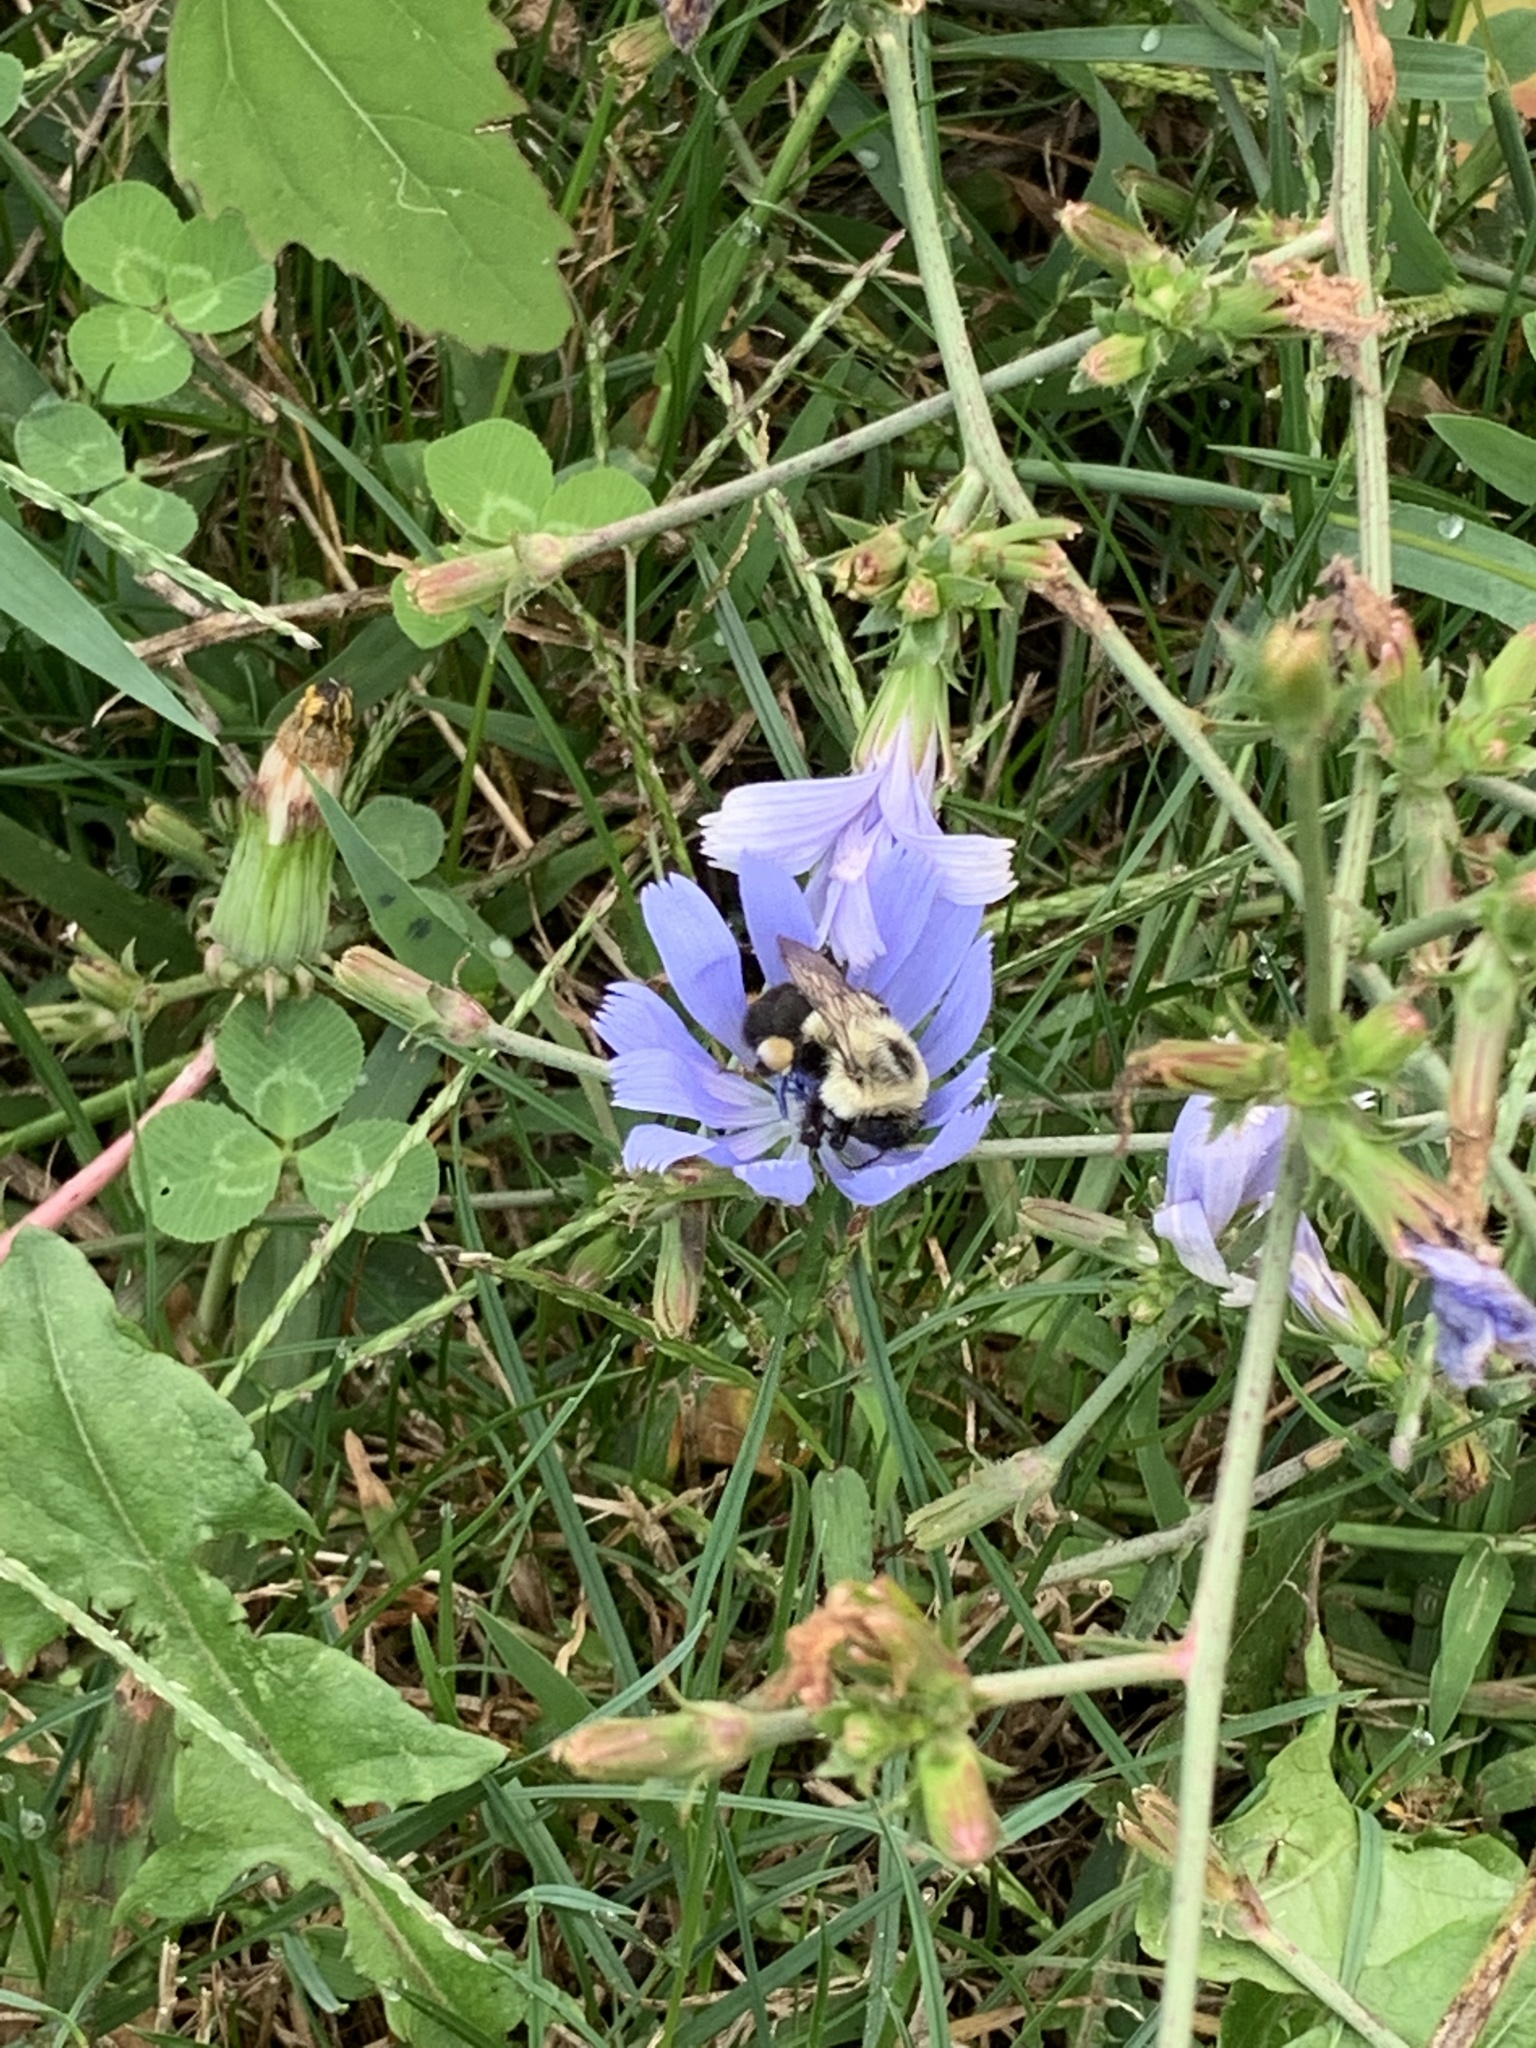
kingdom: Animalia
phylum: Arthropoda
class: Insecta
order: Hymenoptera
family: Apidae
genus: Bombus
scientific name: Bombus impatiens
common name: Common eastern bumble bee
